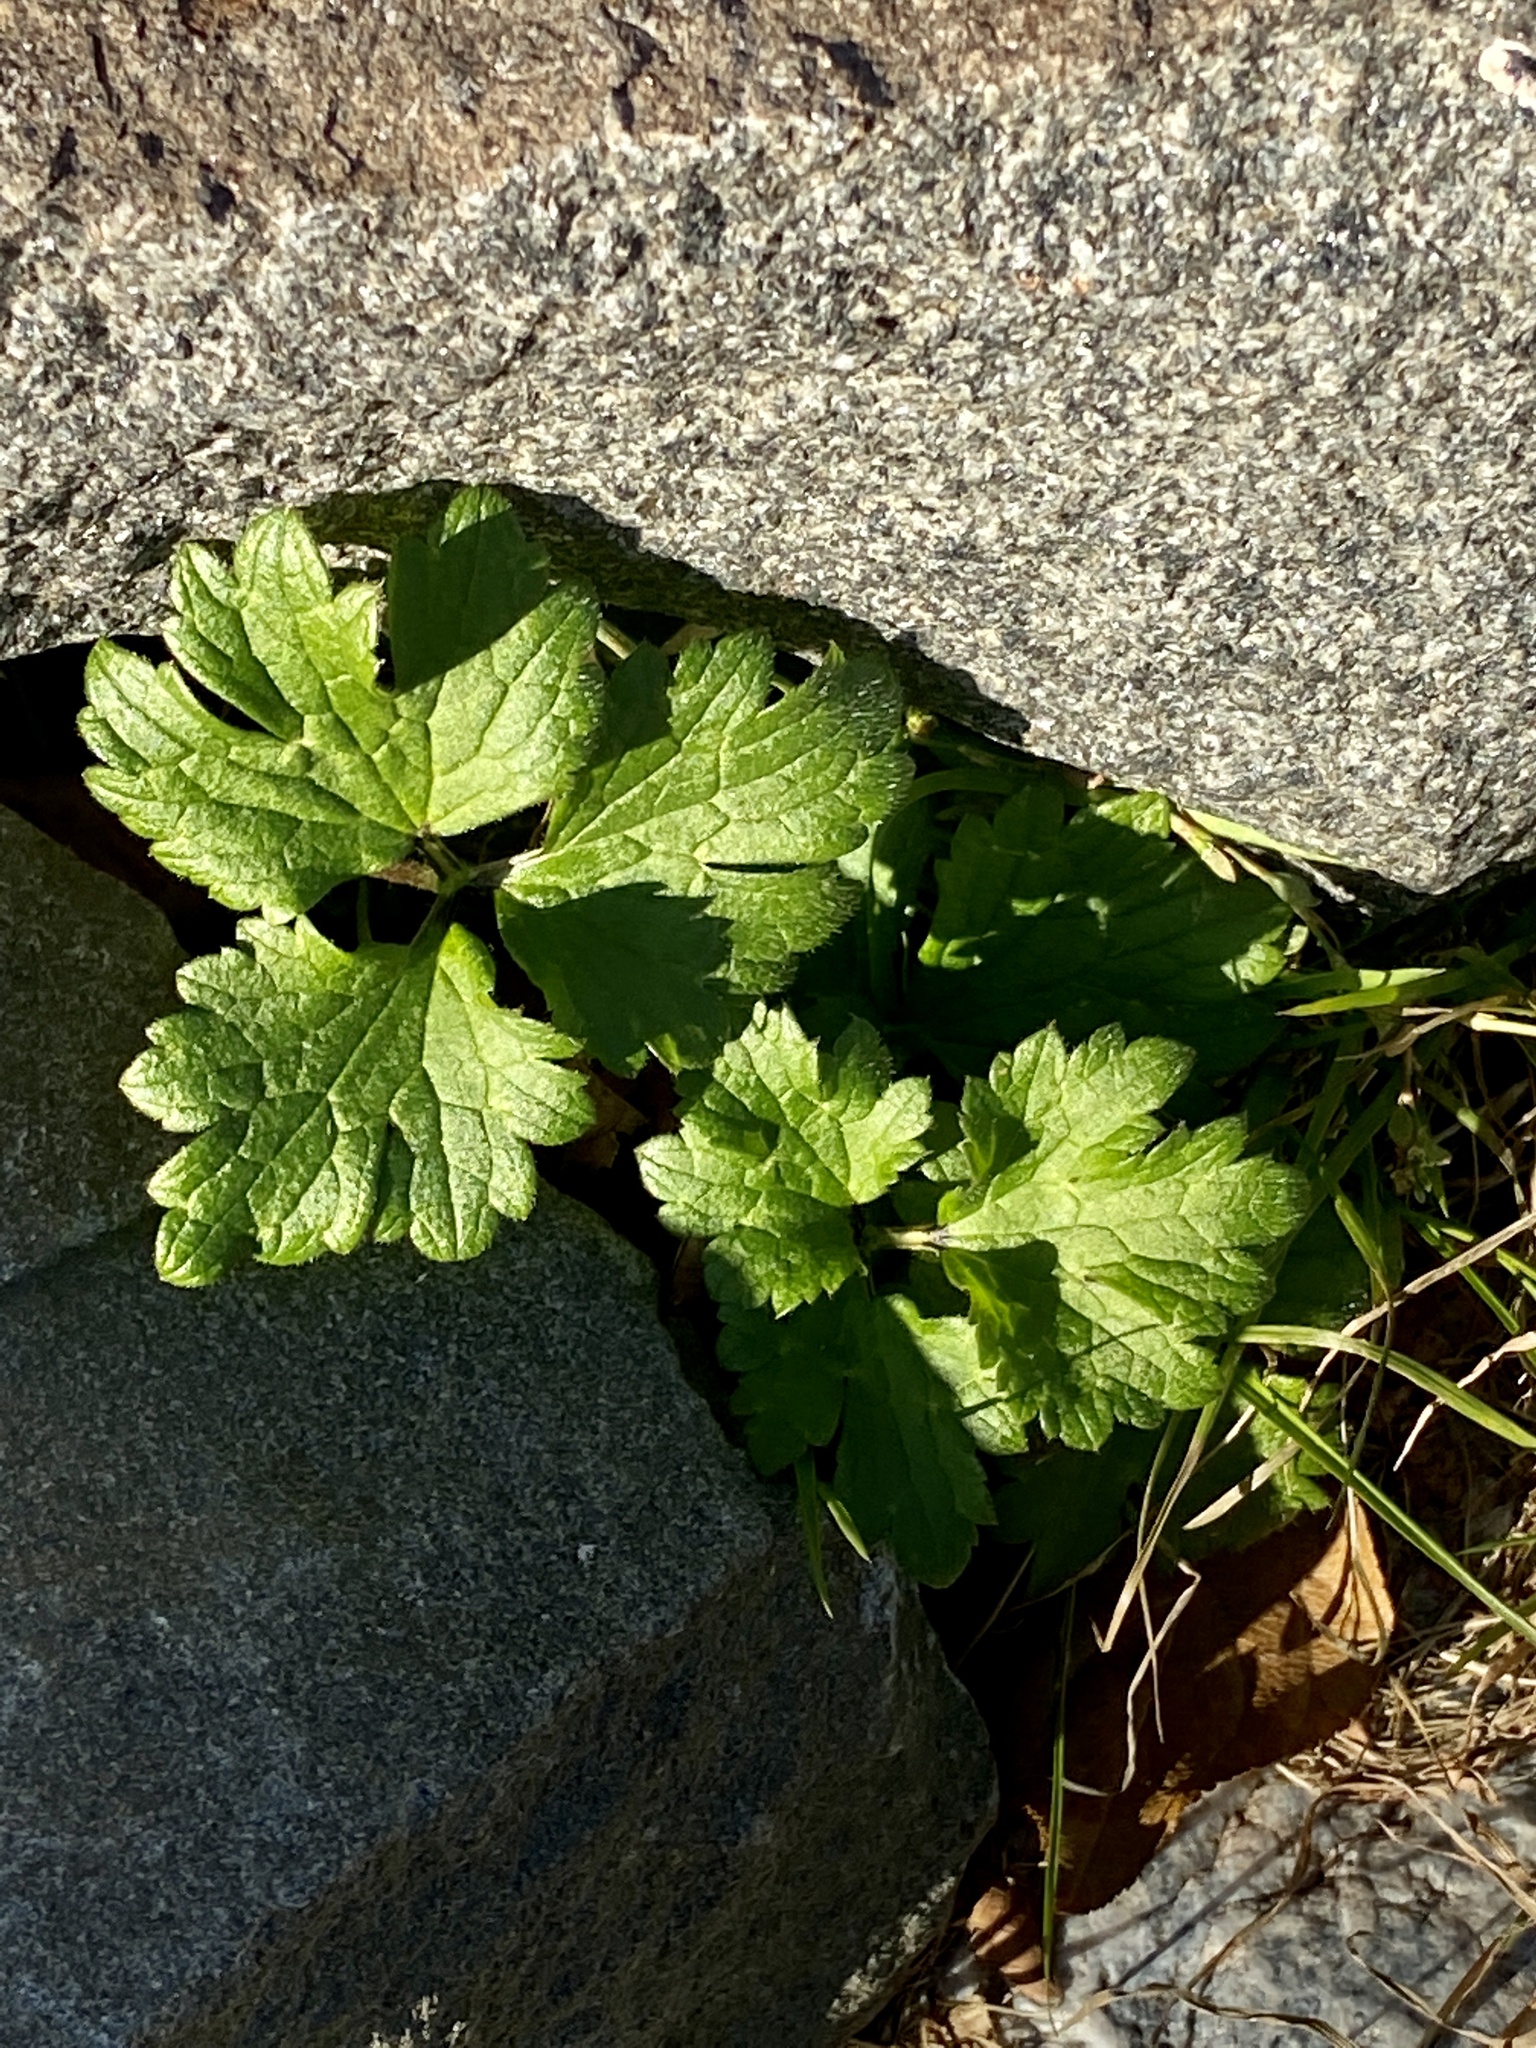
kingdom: Plantae
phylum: Tracheophyta
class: Magnoliopsida
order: Ranunculales
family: Ranunculaceae
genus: Ranunculus
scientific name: Ranunculus repens
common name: Creeping buttercup
